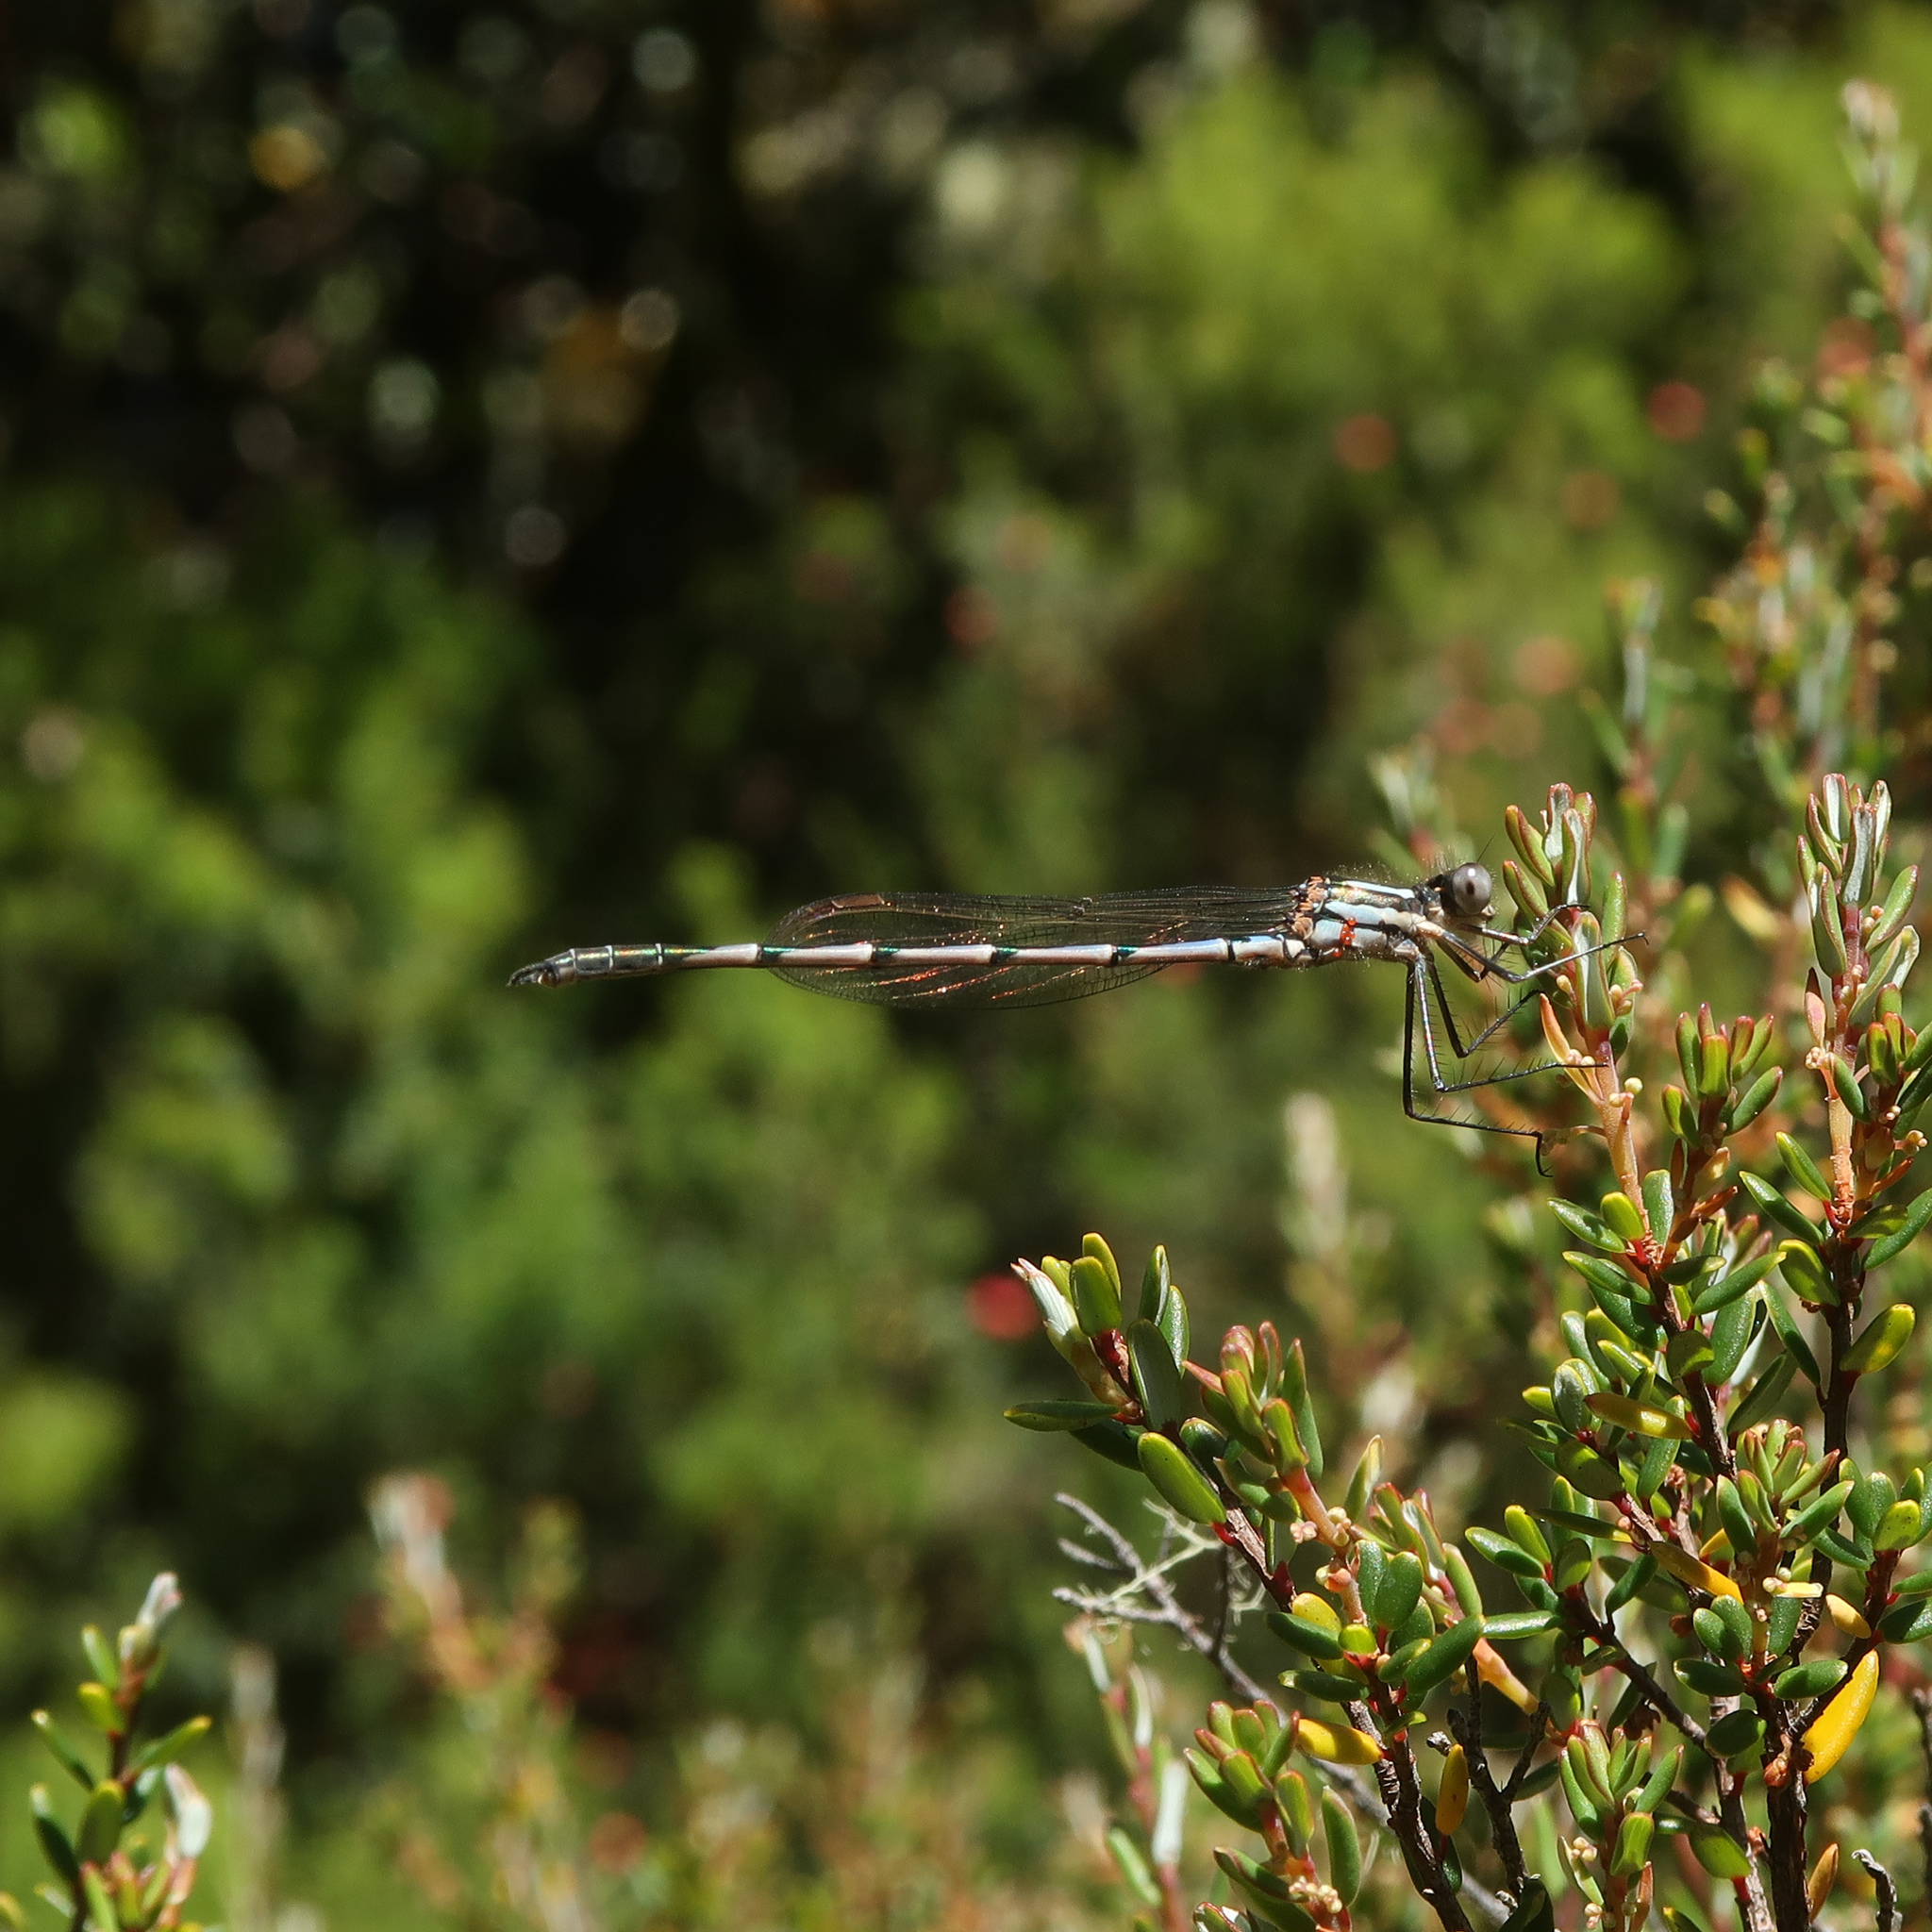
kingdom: Animalia
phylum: Arthropoda
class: Insecta
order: Odonata
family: Lestidae
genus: Austrolestes
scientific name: Austrolestes annulosus
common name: Blue ringtail
